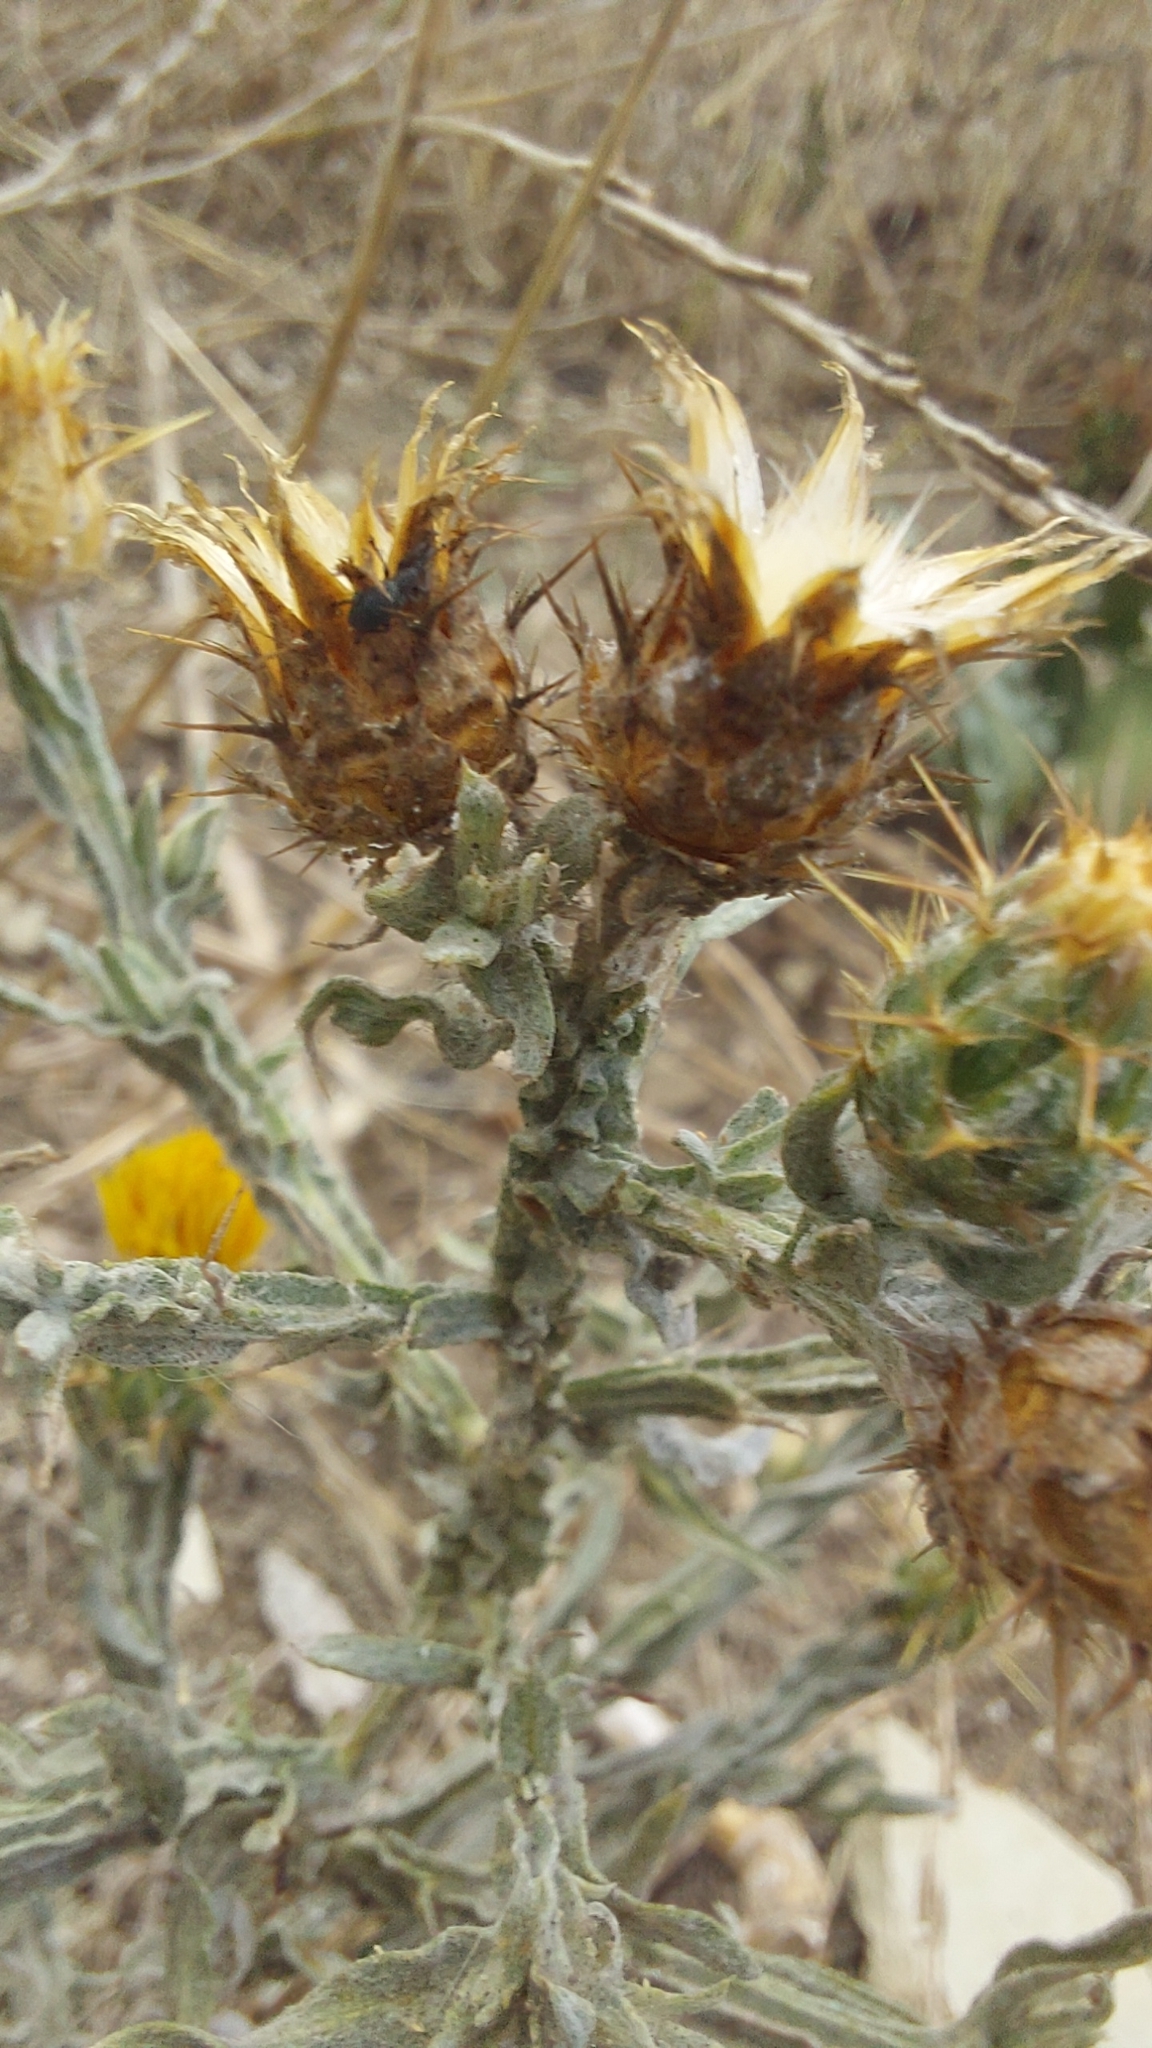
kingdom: Plantae
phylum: Tracheophyta
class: Magnoliopsida
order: Asterales
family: Asteraceae
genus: Centaurea
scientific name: Centaurea solstitialis
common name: Yellow star-thistle
